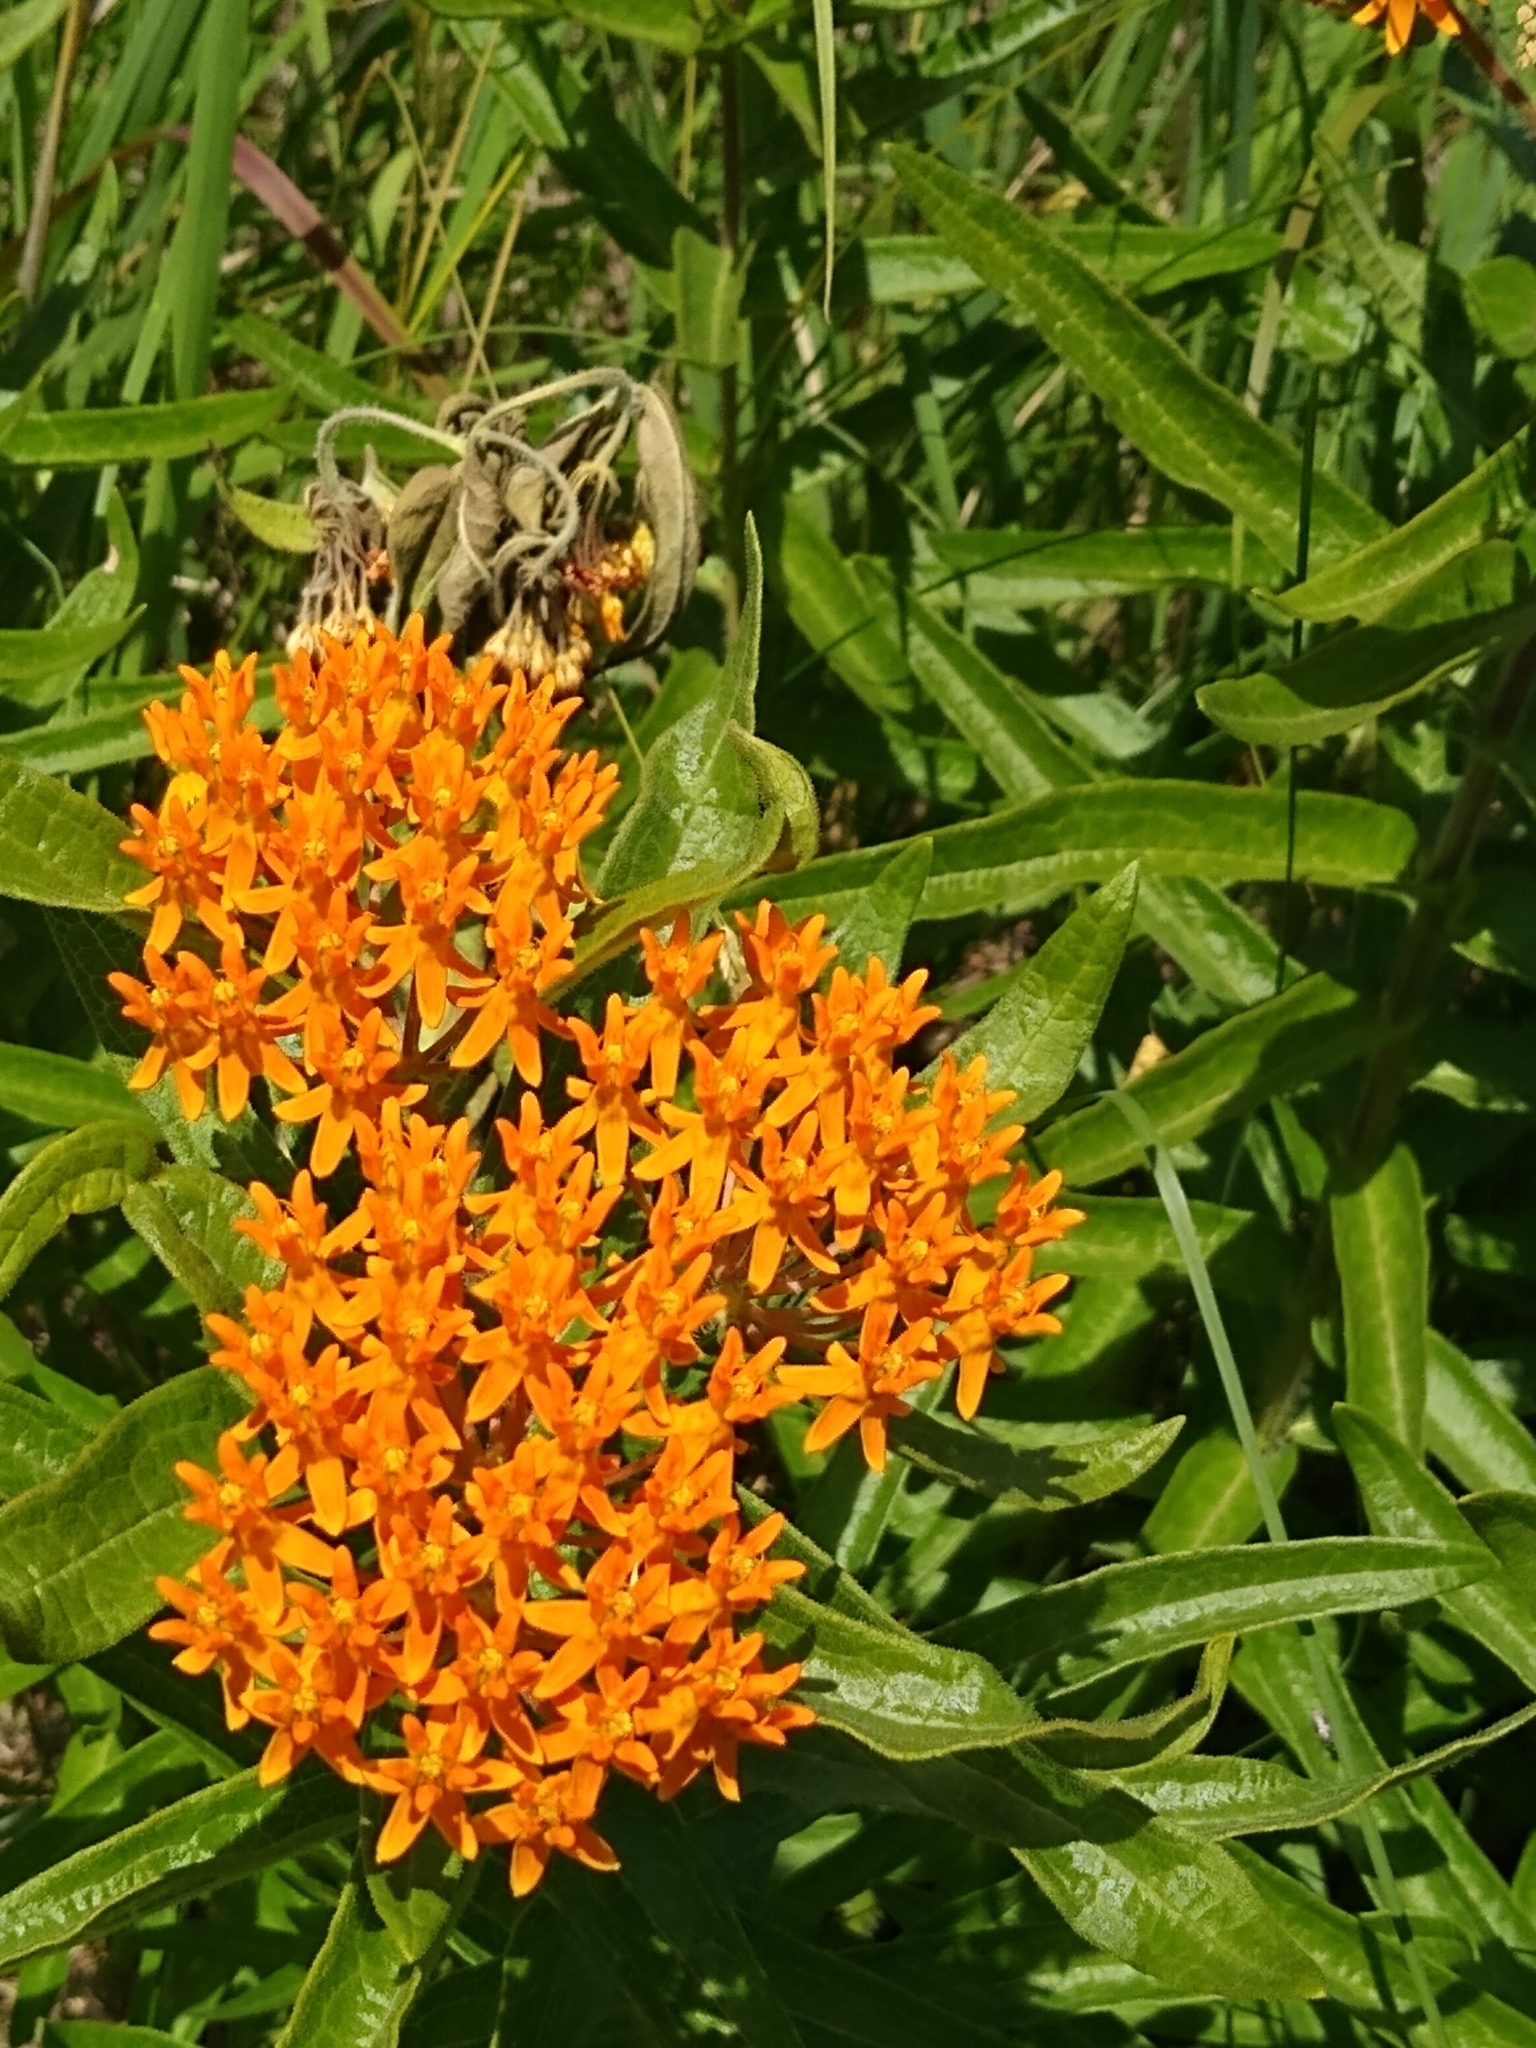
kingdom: Plantae
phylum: Tracheophyta
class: Magnoliopsida
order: Gentianales
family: Apocynaceae
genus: Asclepias
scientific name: Asclepias tuberosa
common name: Butterfly milkweed
